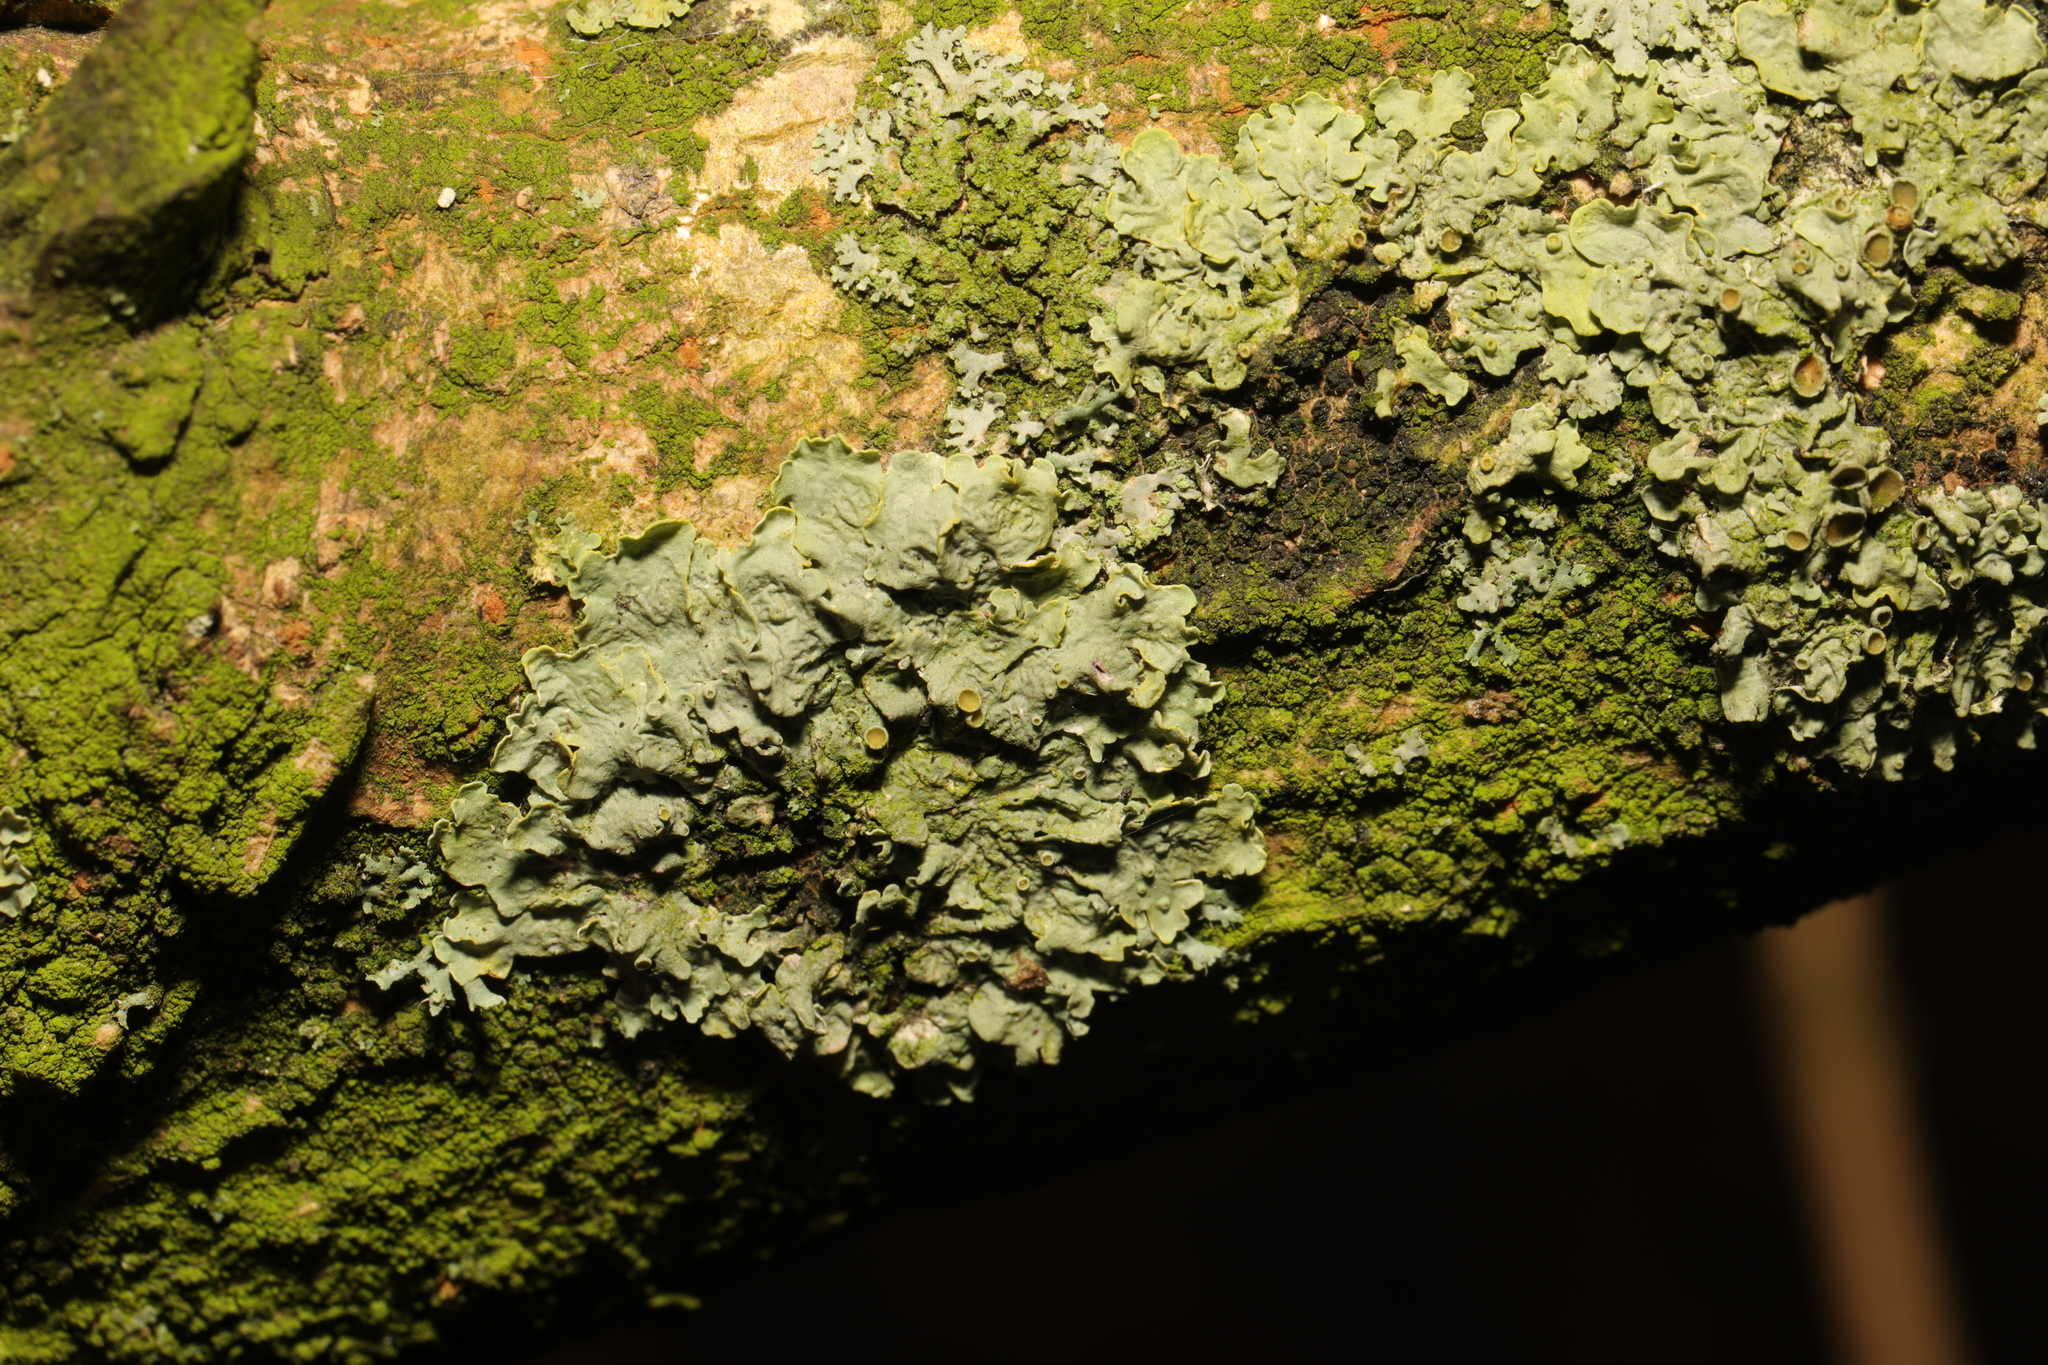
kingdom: Fungi
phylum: Ascomycota
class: Lecanoromycetes
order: Teloschistales
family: Teloschistaceae
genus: Xanthoria
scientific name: Xanthoria parietina
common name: Common orange lichen
